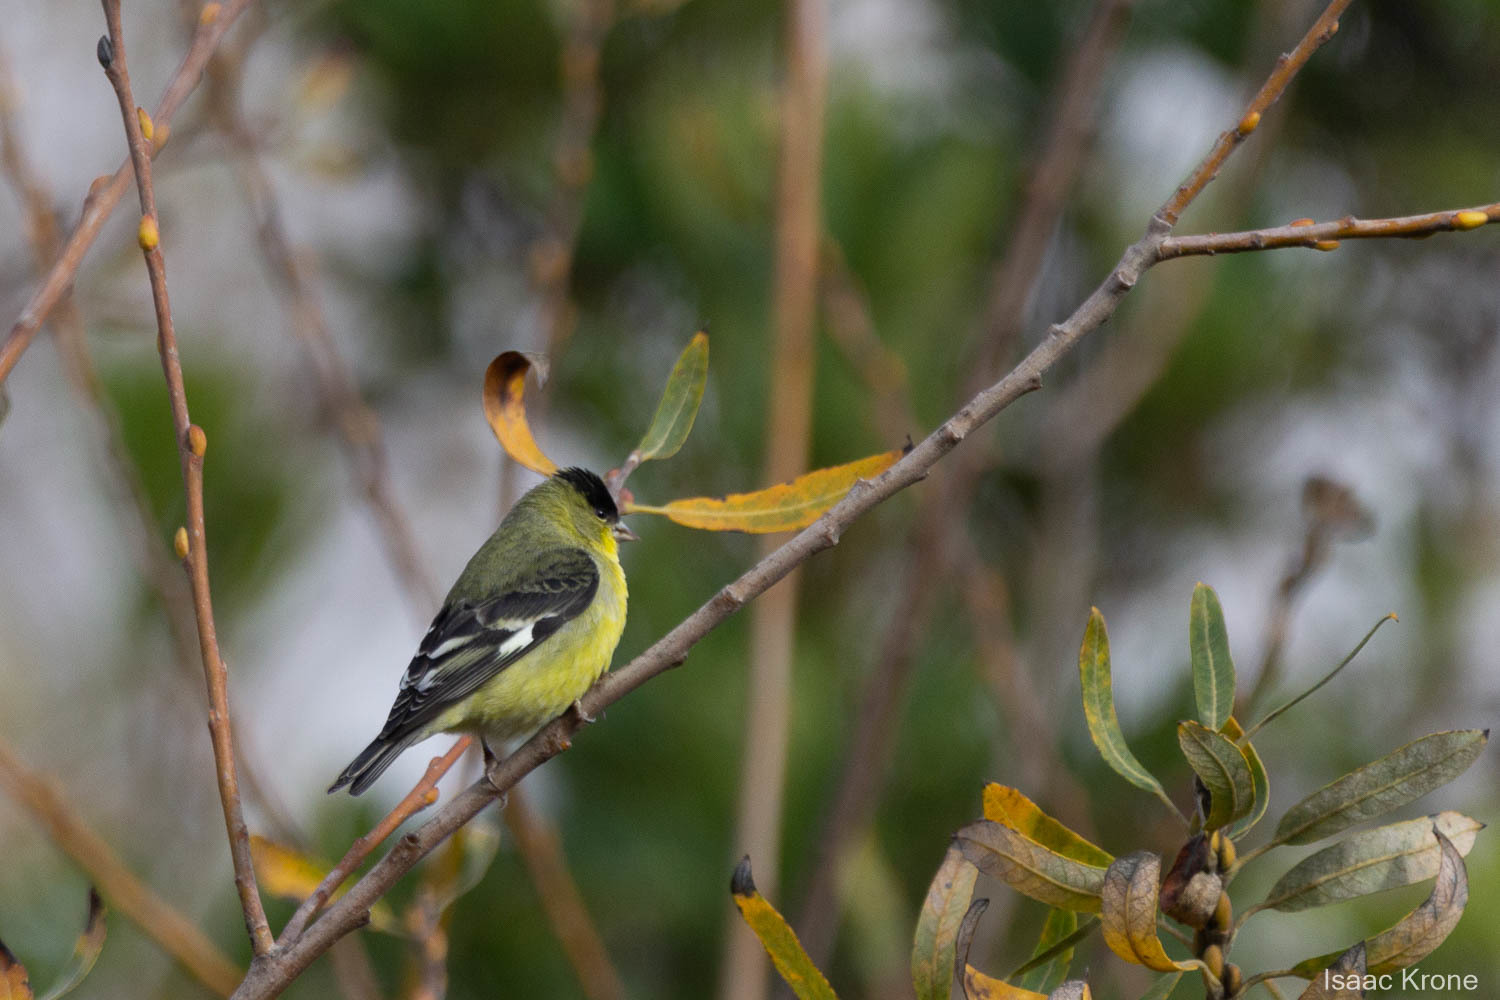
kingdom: Animalia
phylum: Chordata
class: Aves
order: Passeriformes
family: Fringillidae
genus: Spinus
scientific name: Spinus psaltria
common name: Lesser goldfinch
